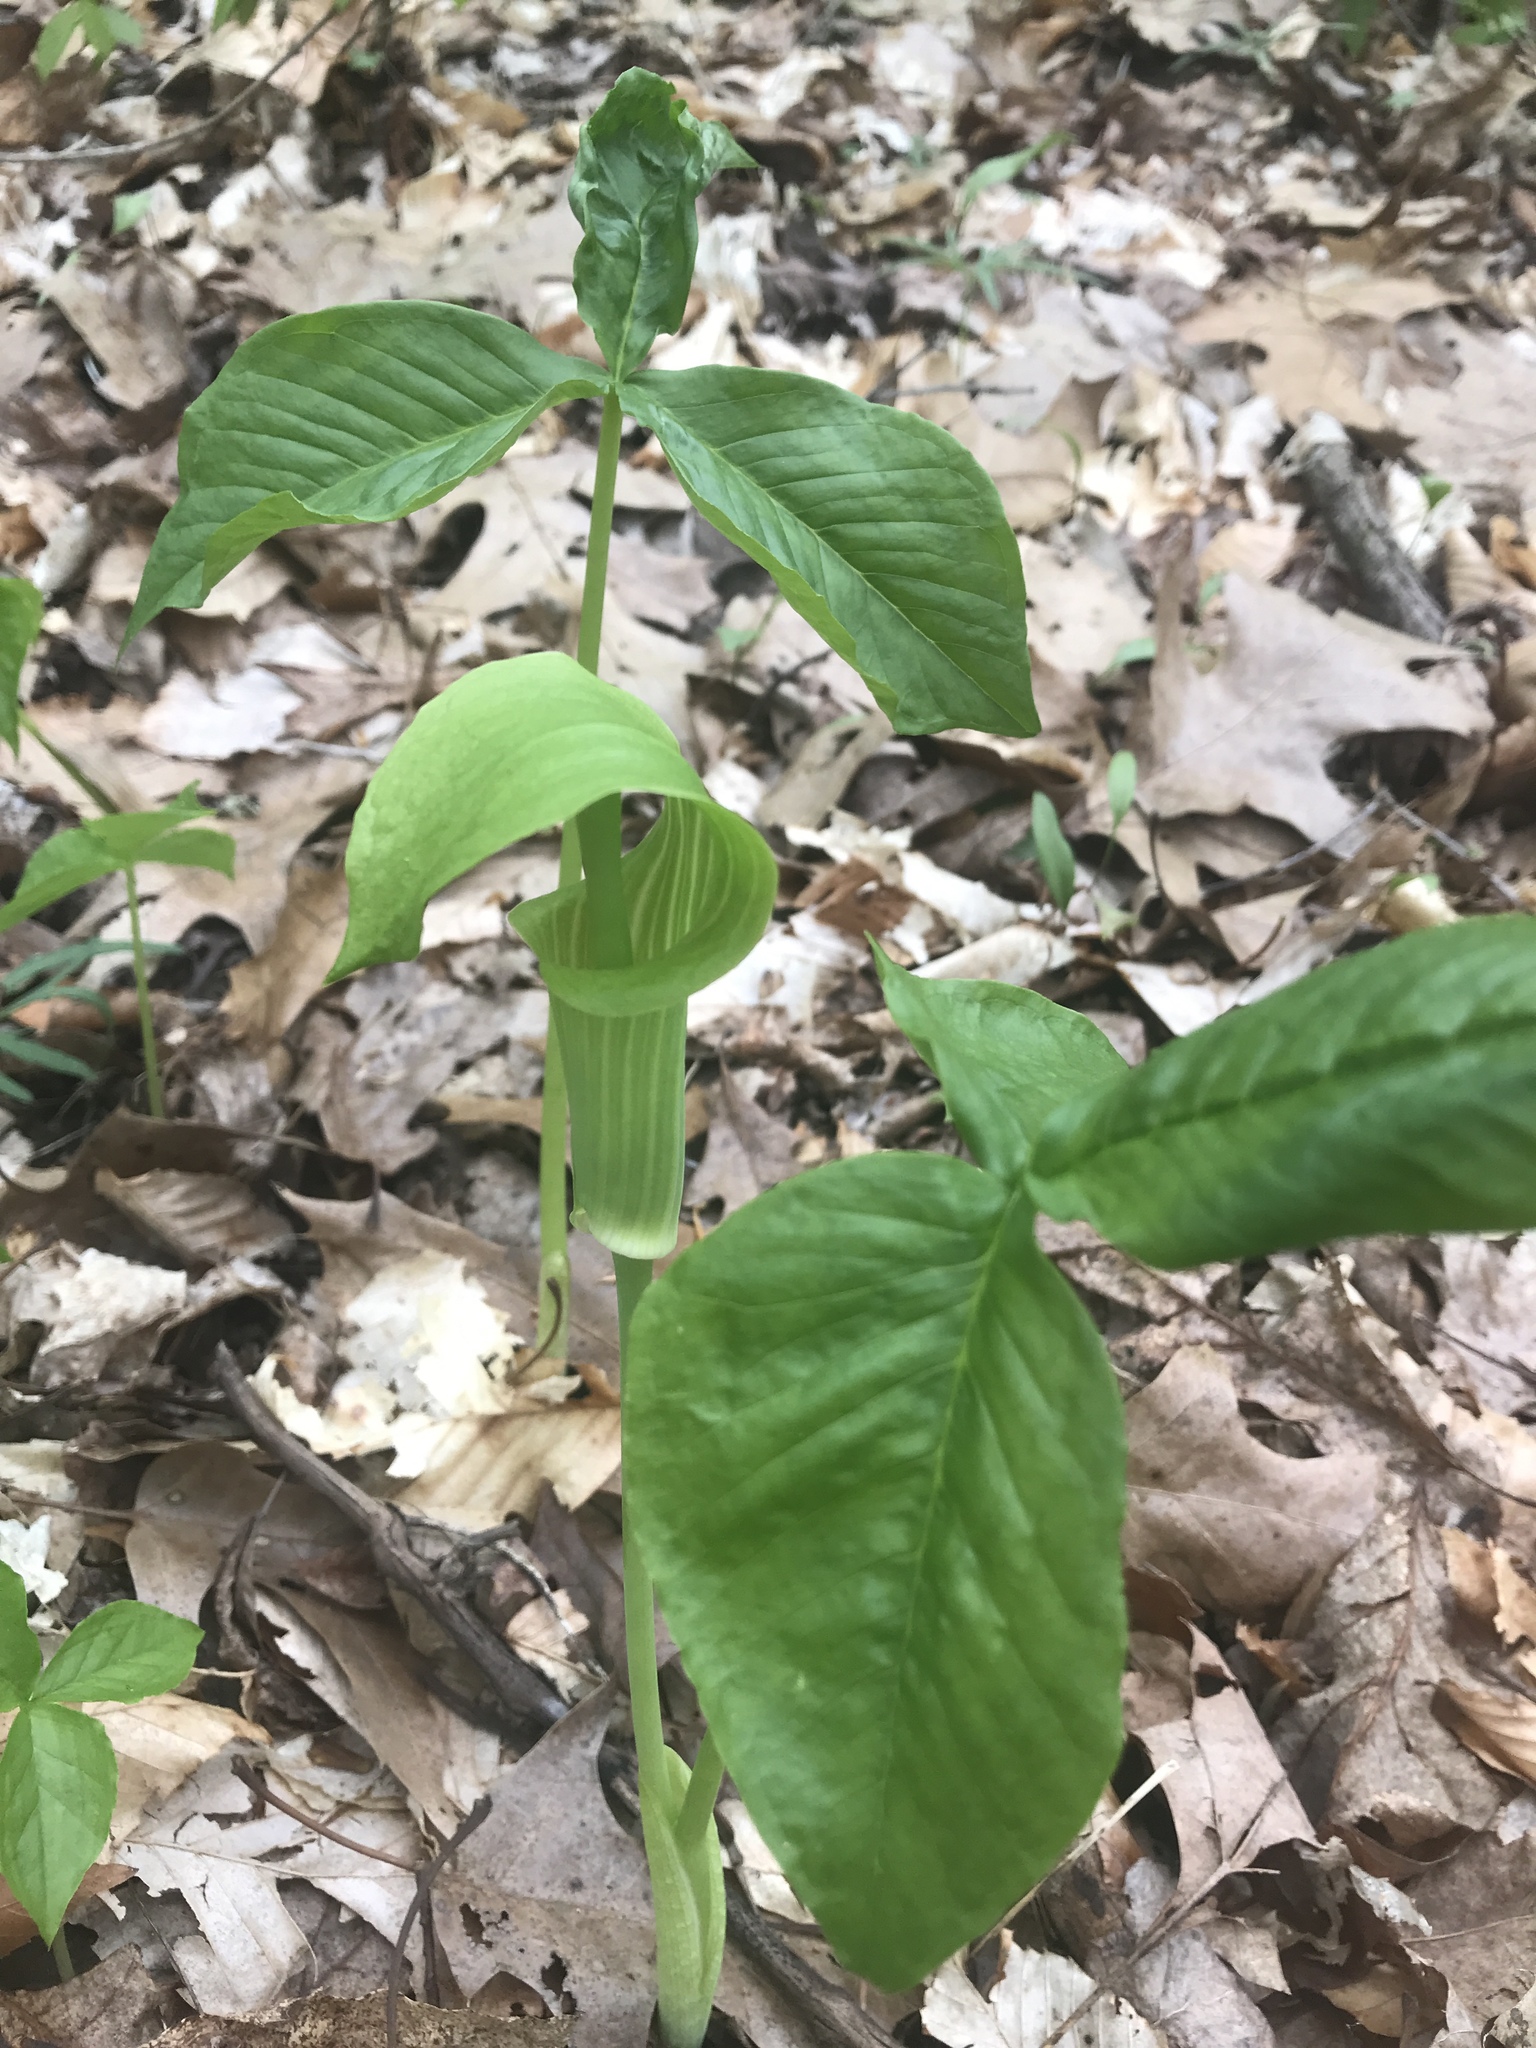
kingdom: Plantae
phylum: Tracheophyta
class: Liliopsida
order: Alismatales
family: Araceae
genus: Arisaema
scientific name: Arisaema triphyllum
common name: Jack-in-the-pulpit
